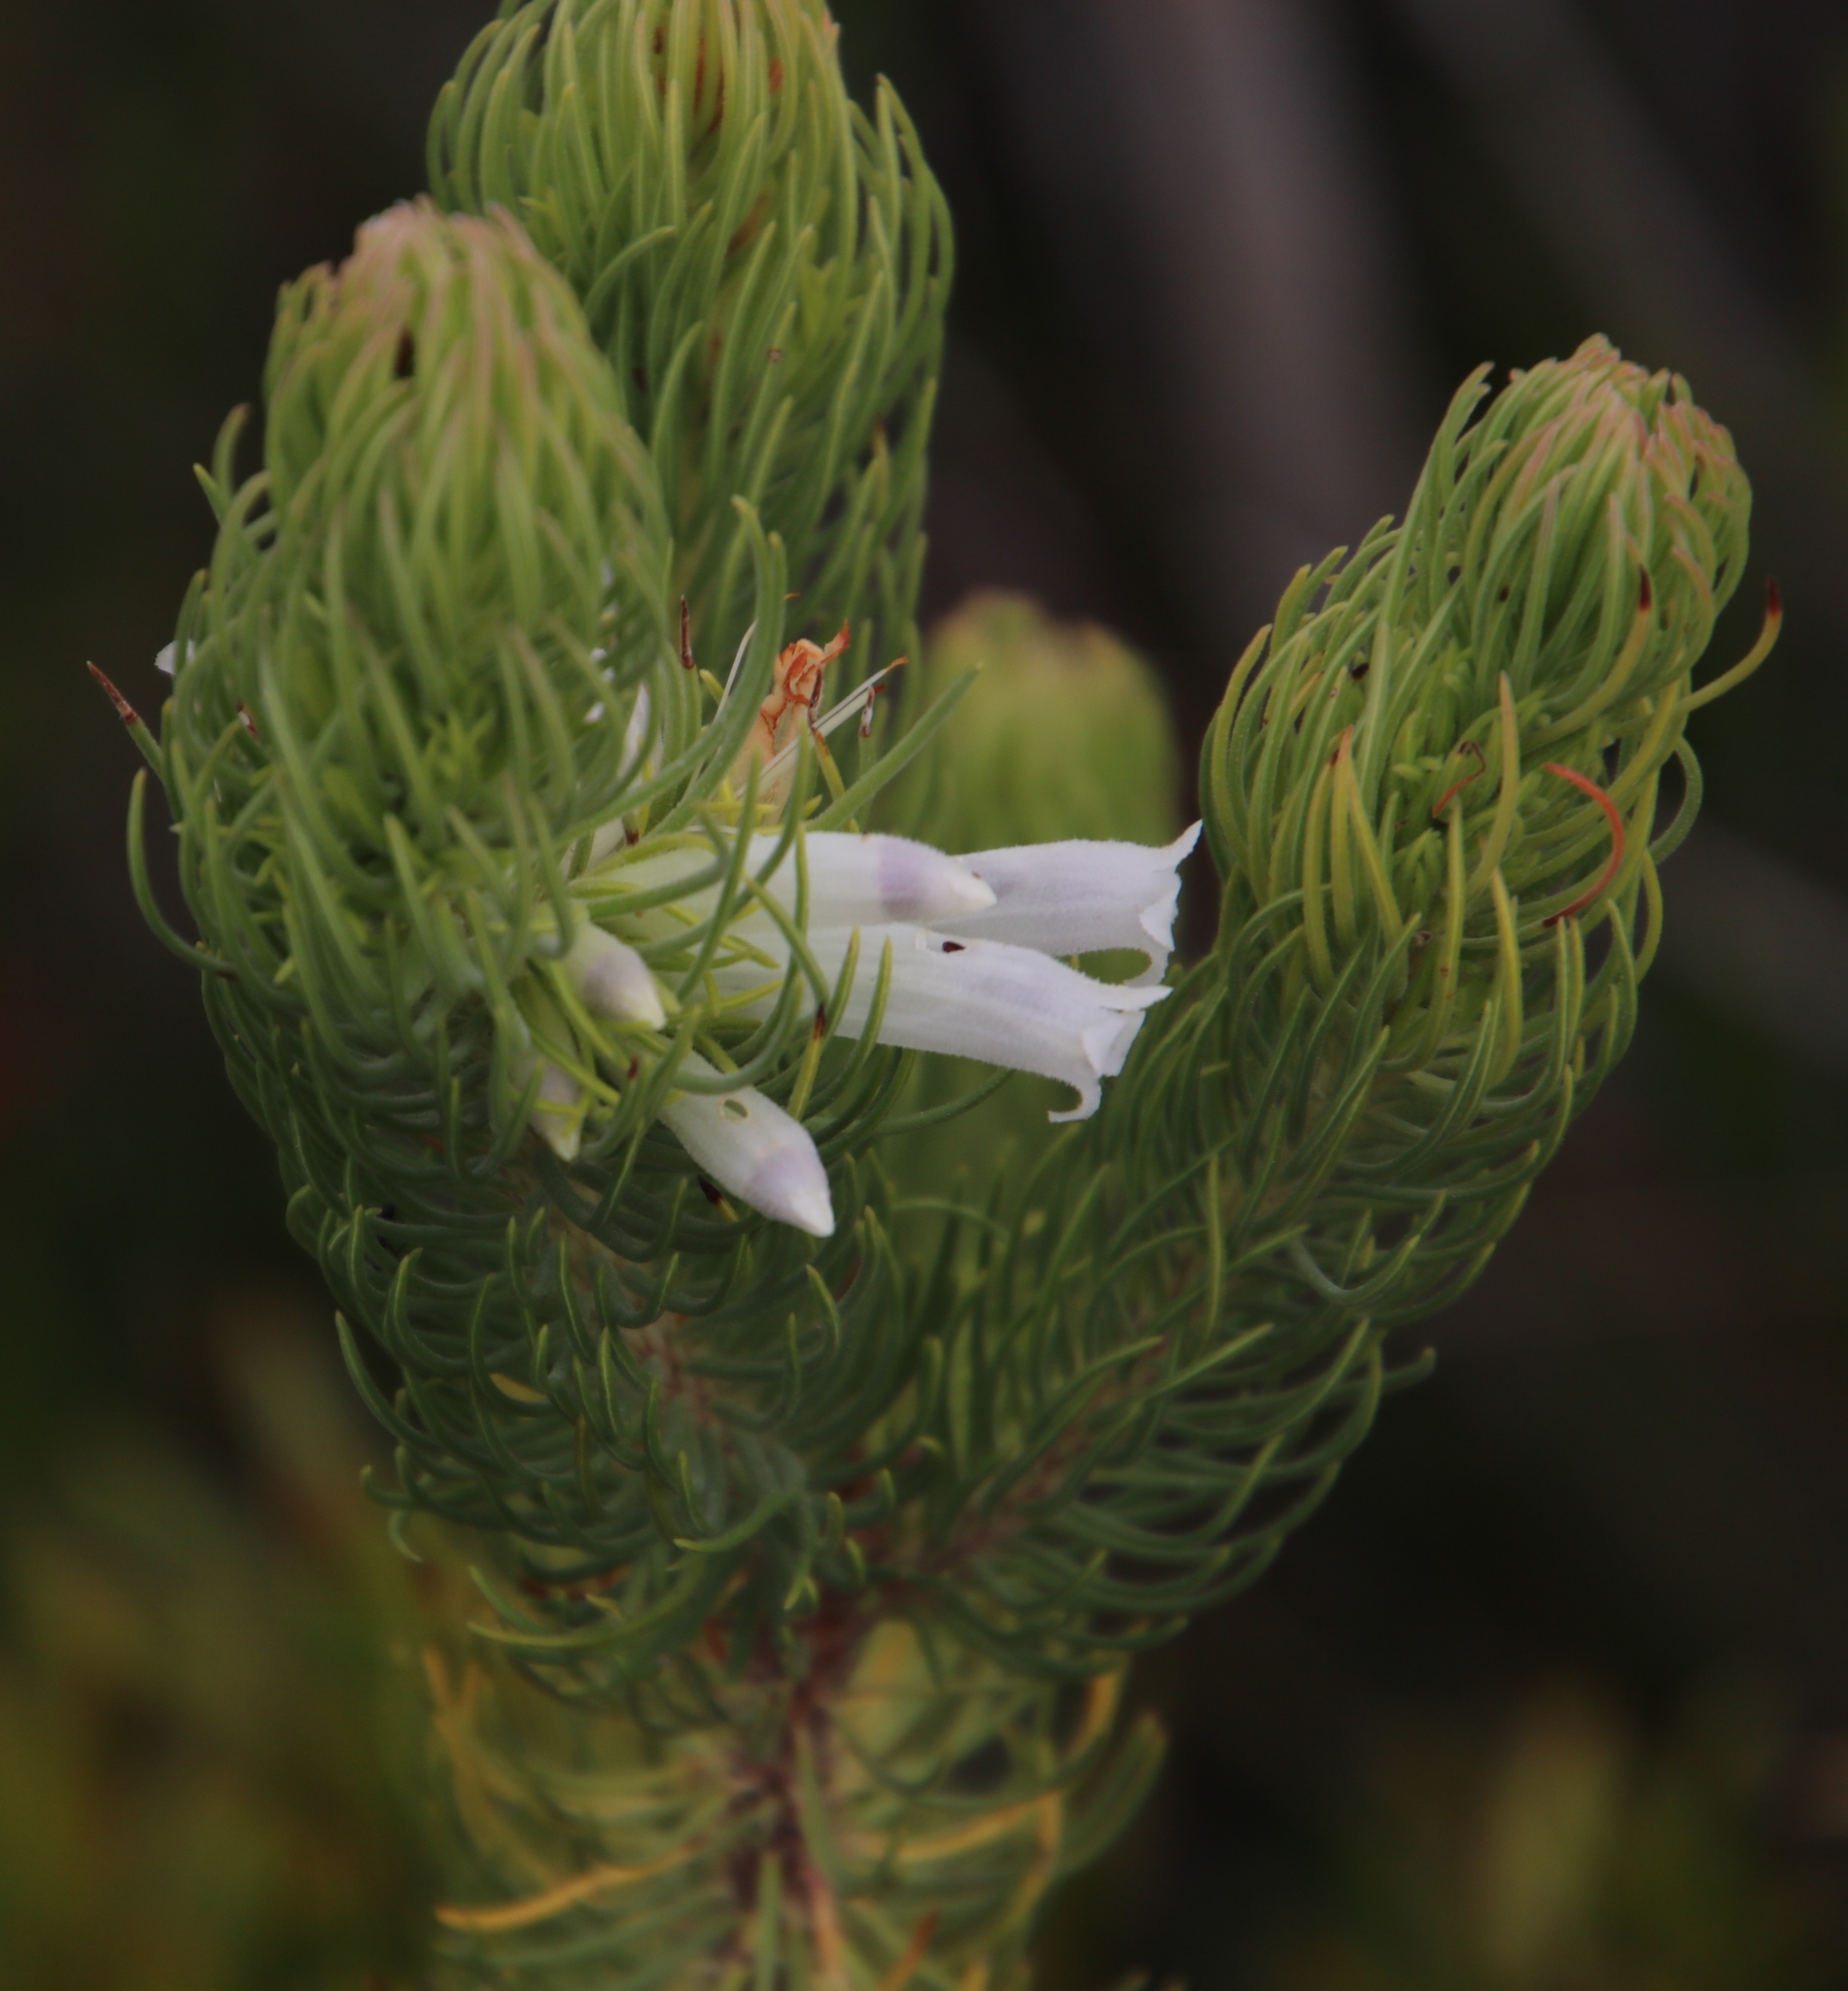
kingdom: Plantae
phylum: Tracheophyta
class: Magnoliopsida
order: Ericales
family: Ericaceae
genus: Erica
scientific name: Erica viscaria
